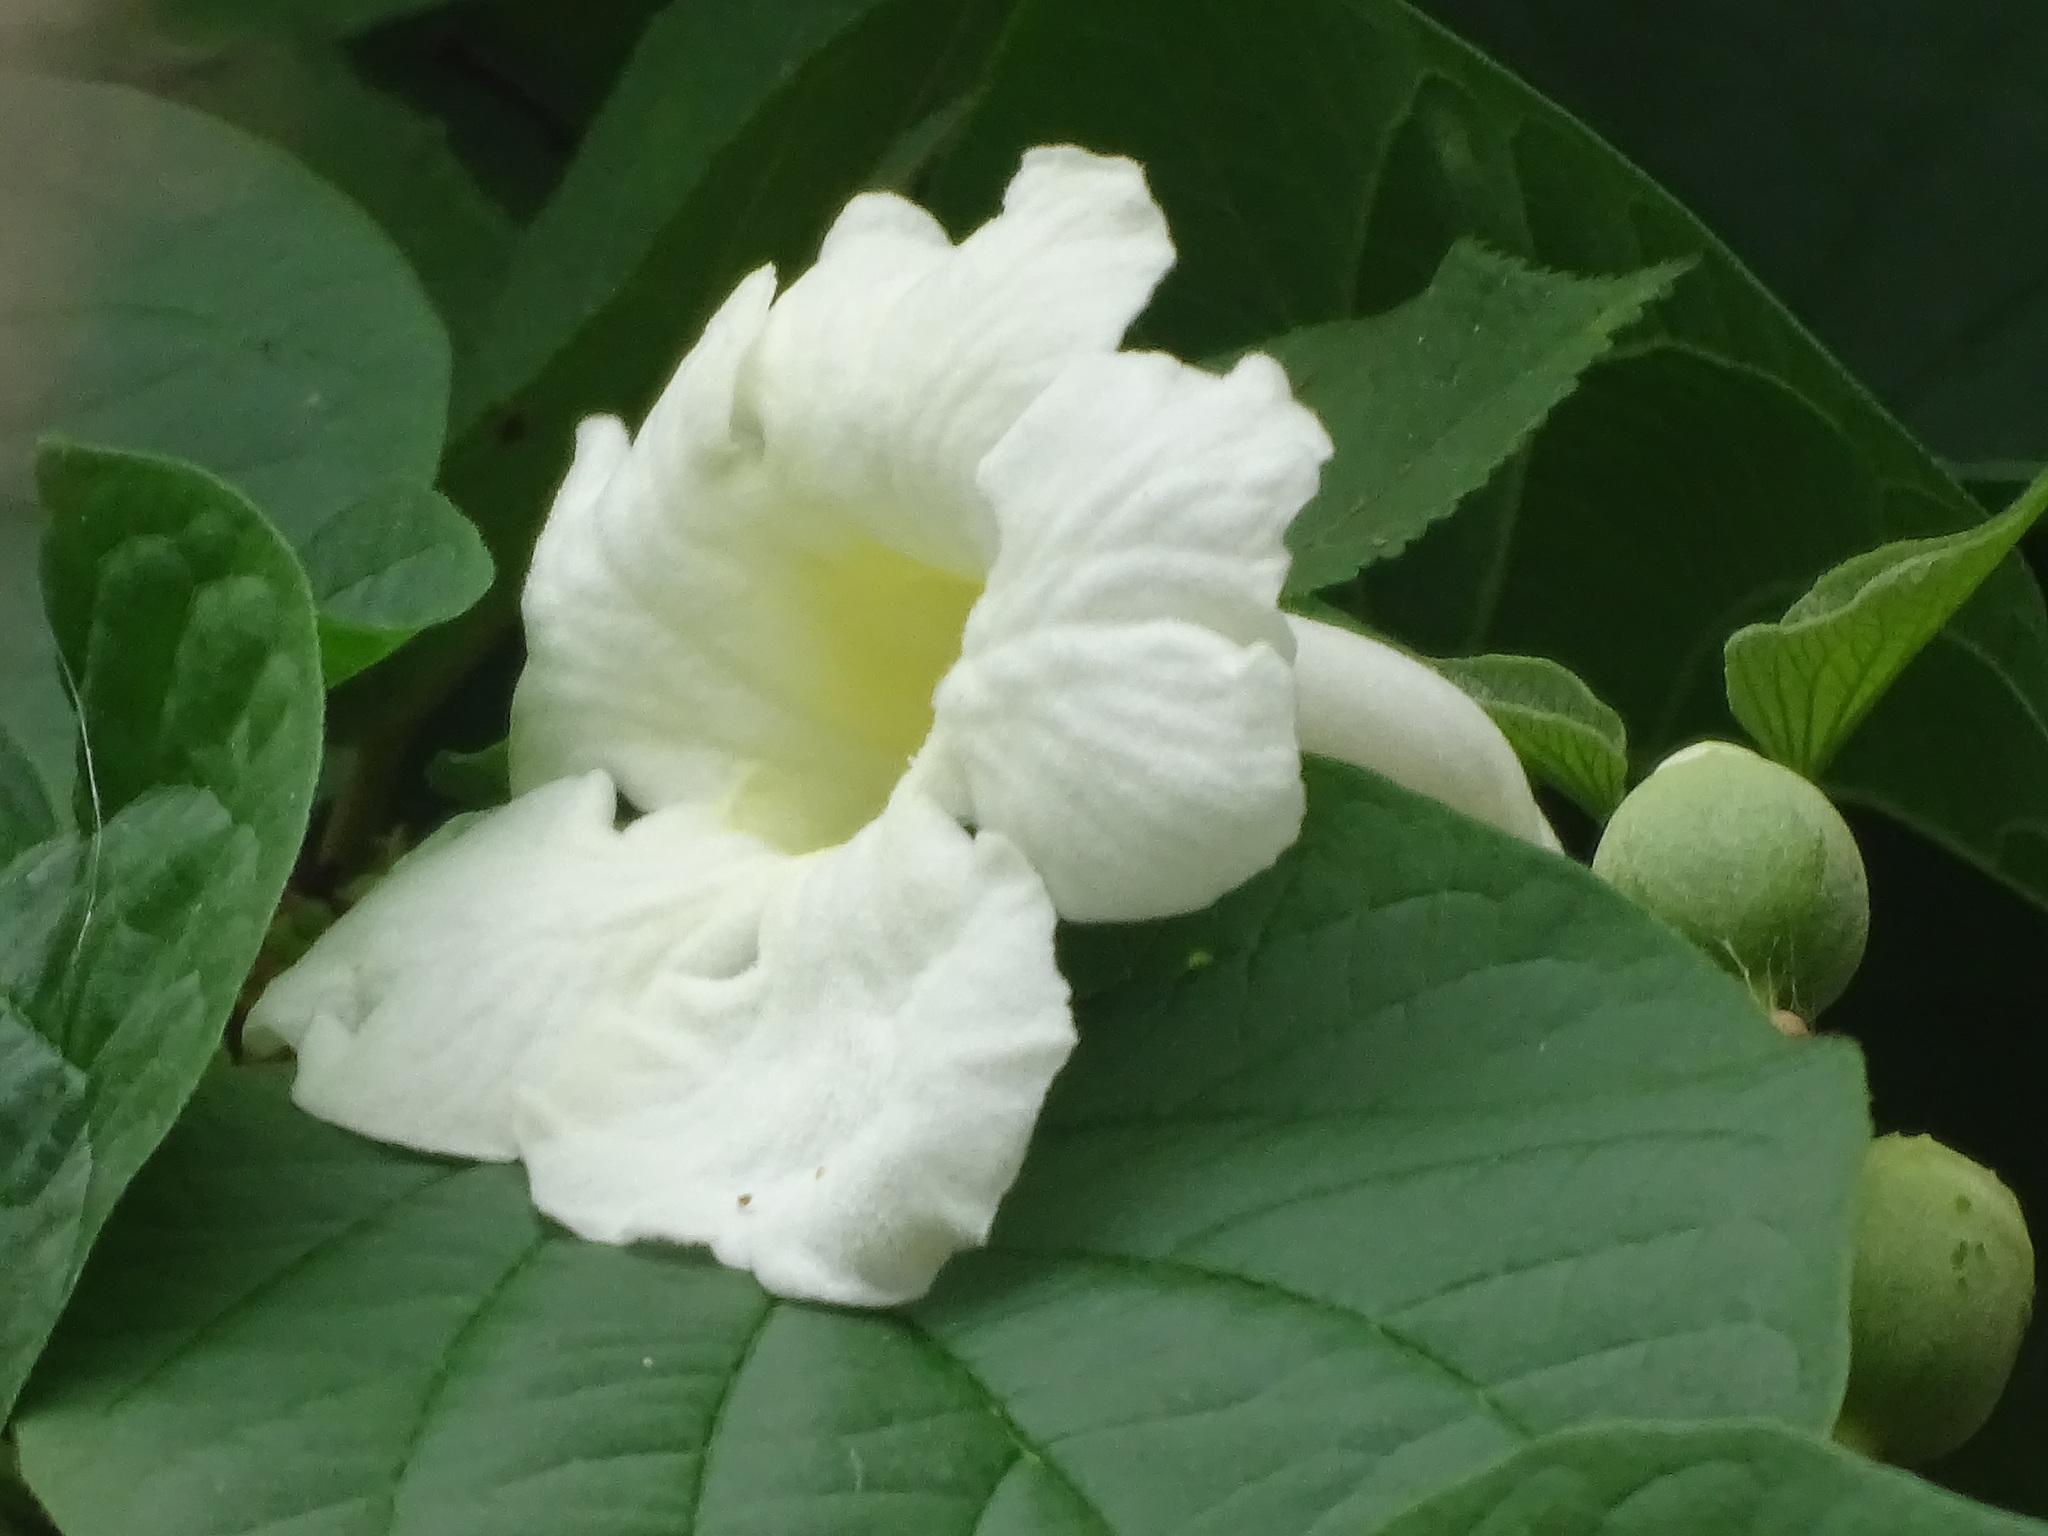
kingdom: Plantae
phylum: Tracheophyta
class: Magnoliopsida
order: Lamiales
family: Bignoniaceae
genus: Amphilophium
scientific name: Amphilophium crucigerum
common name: Monkey comb
